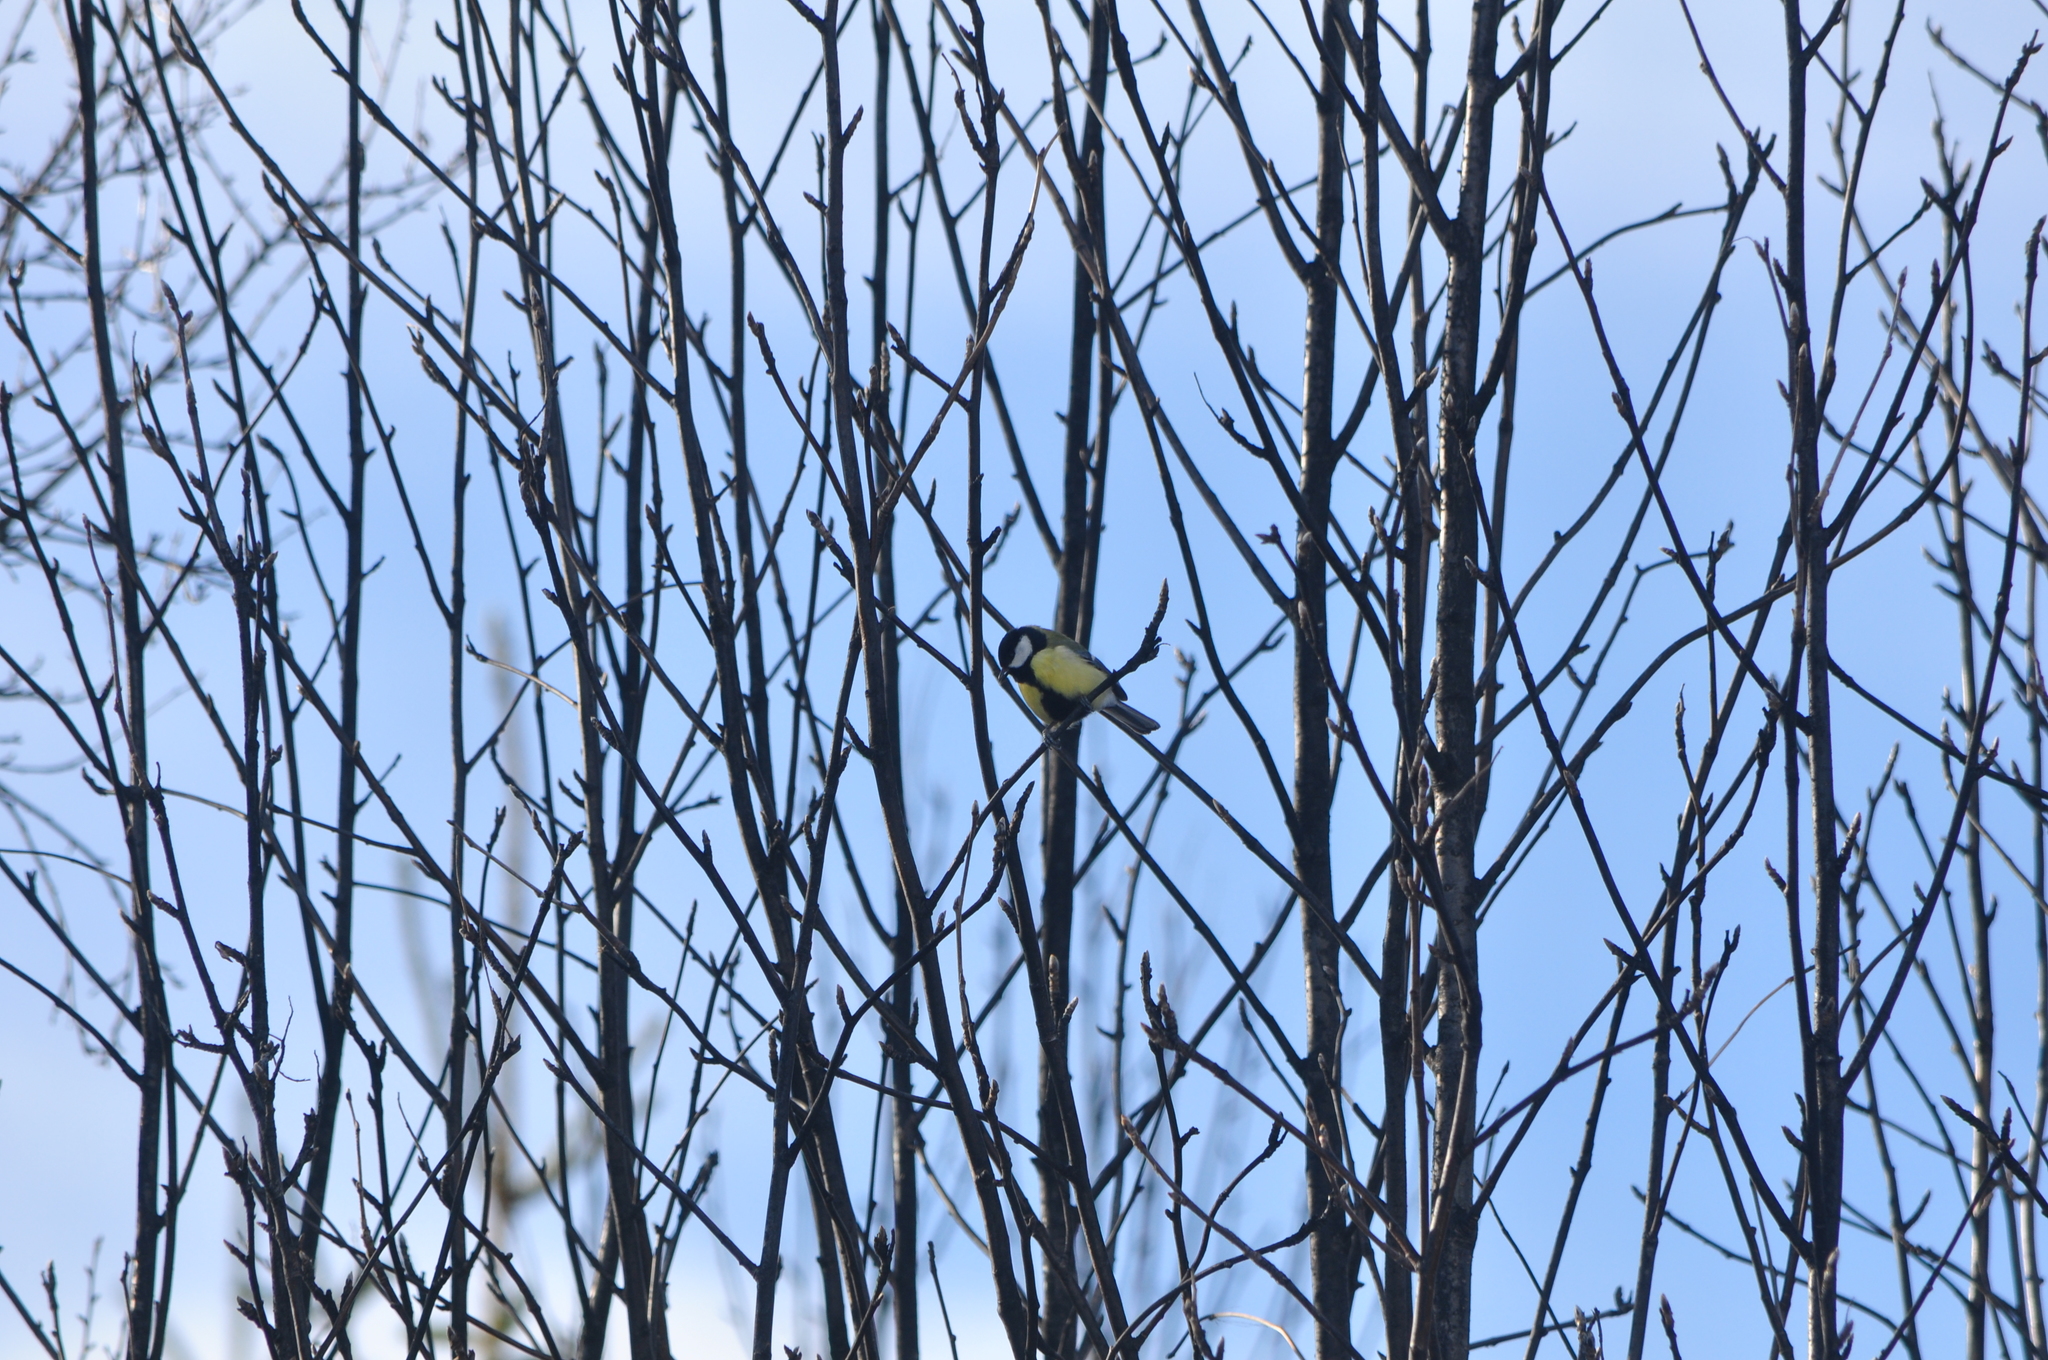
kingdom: Animalia
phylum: Chordata
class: Aves
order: Passeriformes
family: Paridae
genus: Parus
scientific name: Parus major
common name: Great tit
